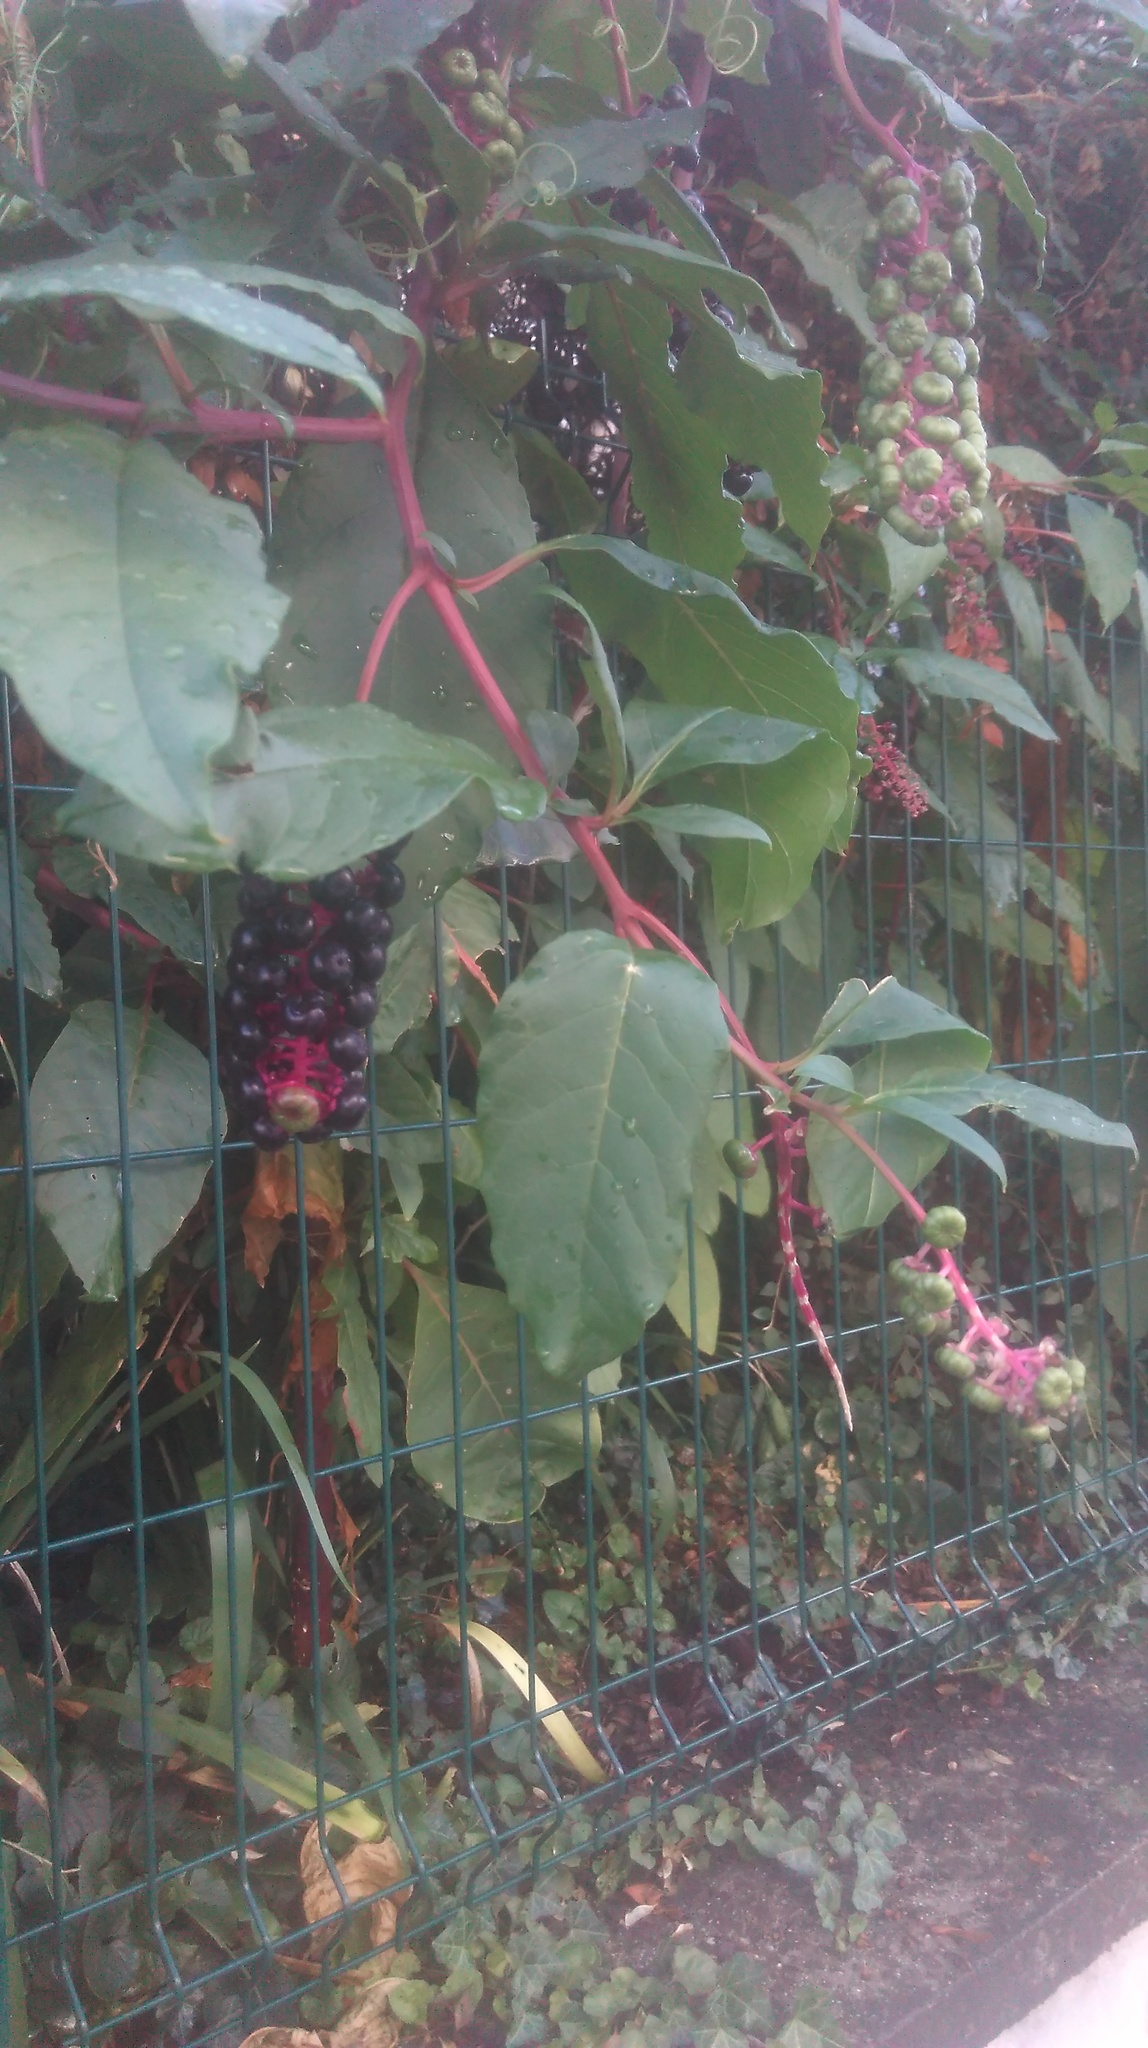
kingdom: Plantae
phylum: Tracheophyta
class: Magnoliopsida
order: Caryophyllales
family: Phytolaccaceae
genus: Phytolacca
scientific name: Phytolacca americana
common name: American pokeweed
